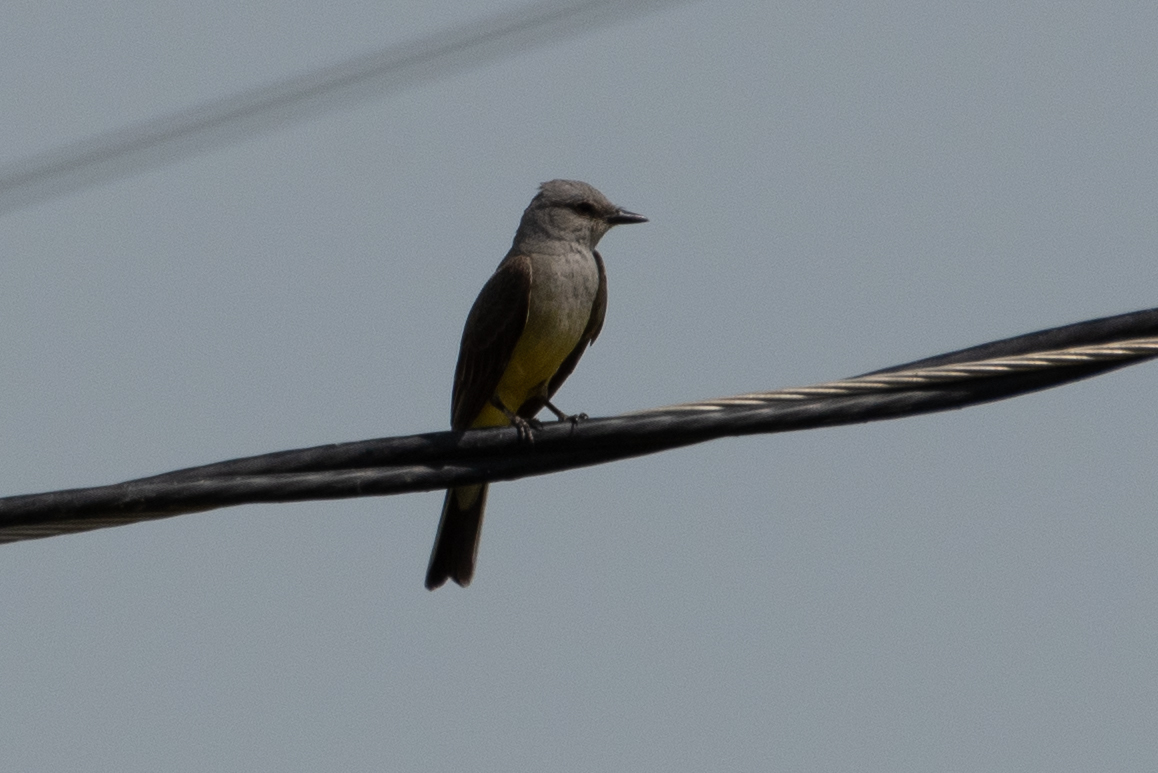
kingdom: Animalia
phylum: Chordata
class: Aves
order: Passeriformes
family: Tyrannidae
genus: Tyrannus
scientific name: Tyrannus verticalis
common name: Western kingbird
